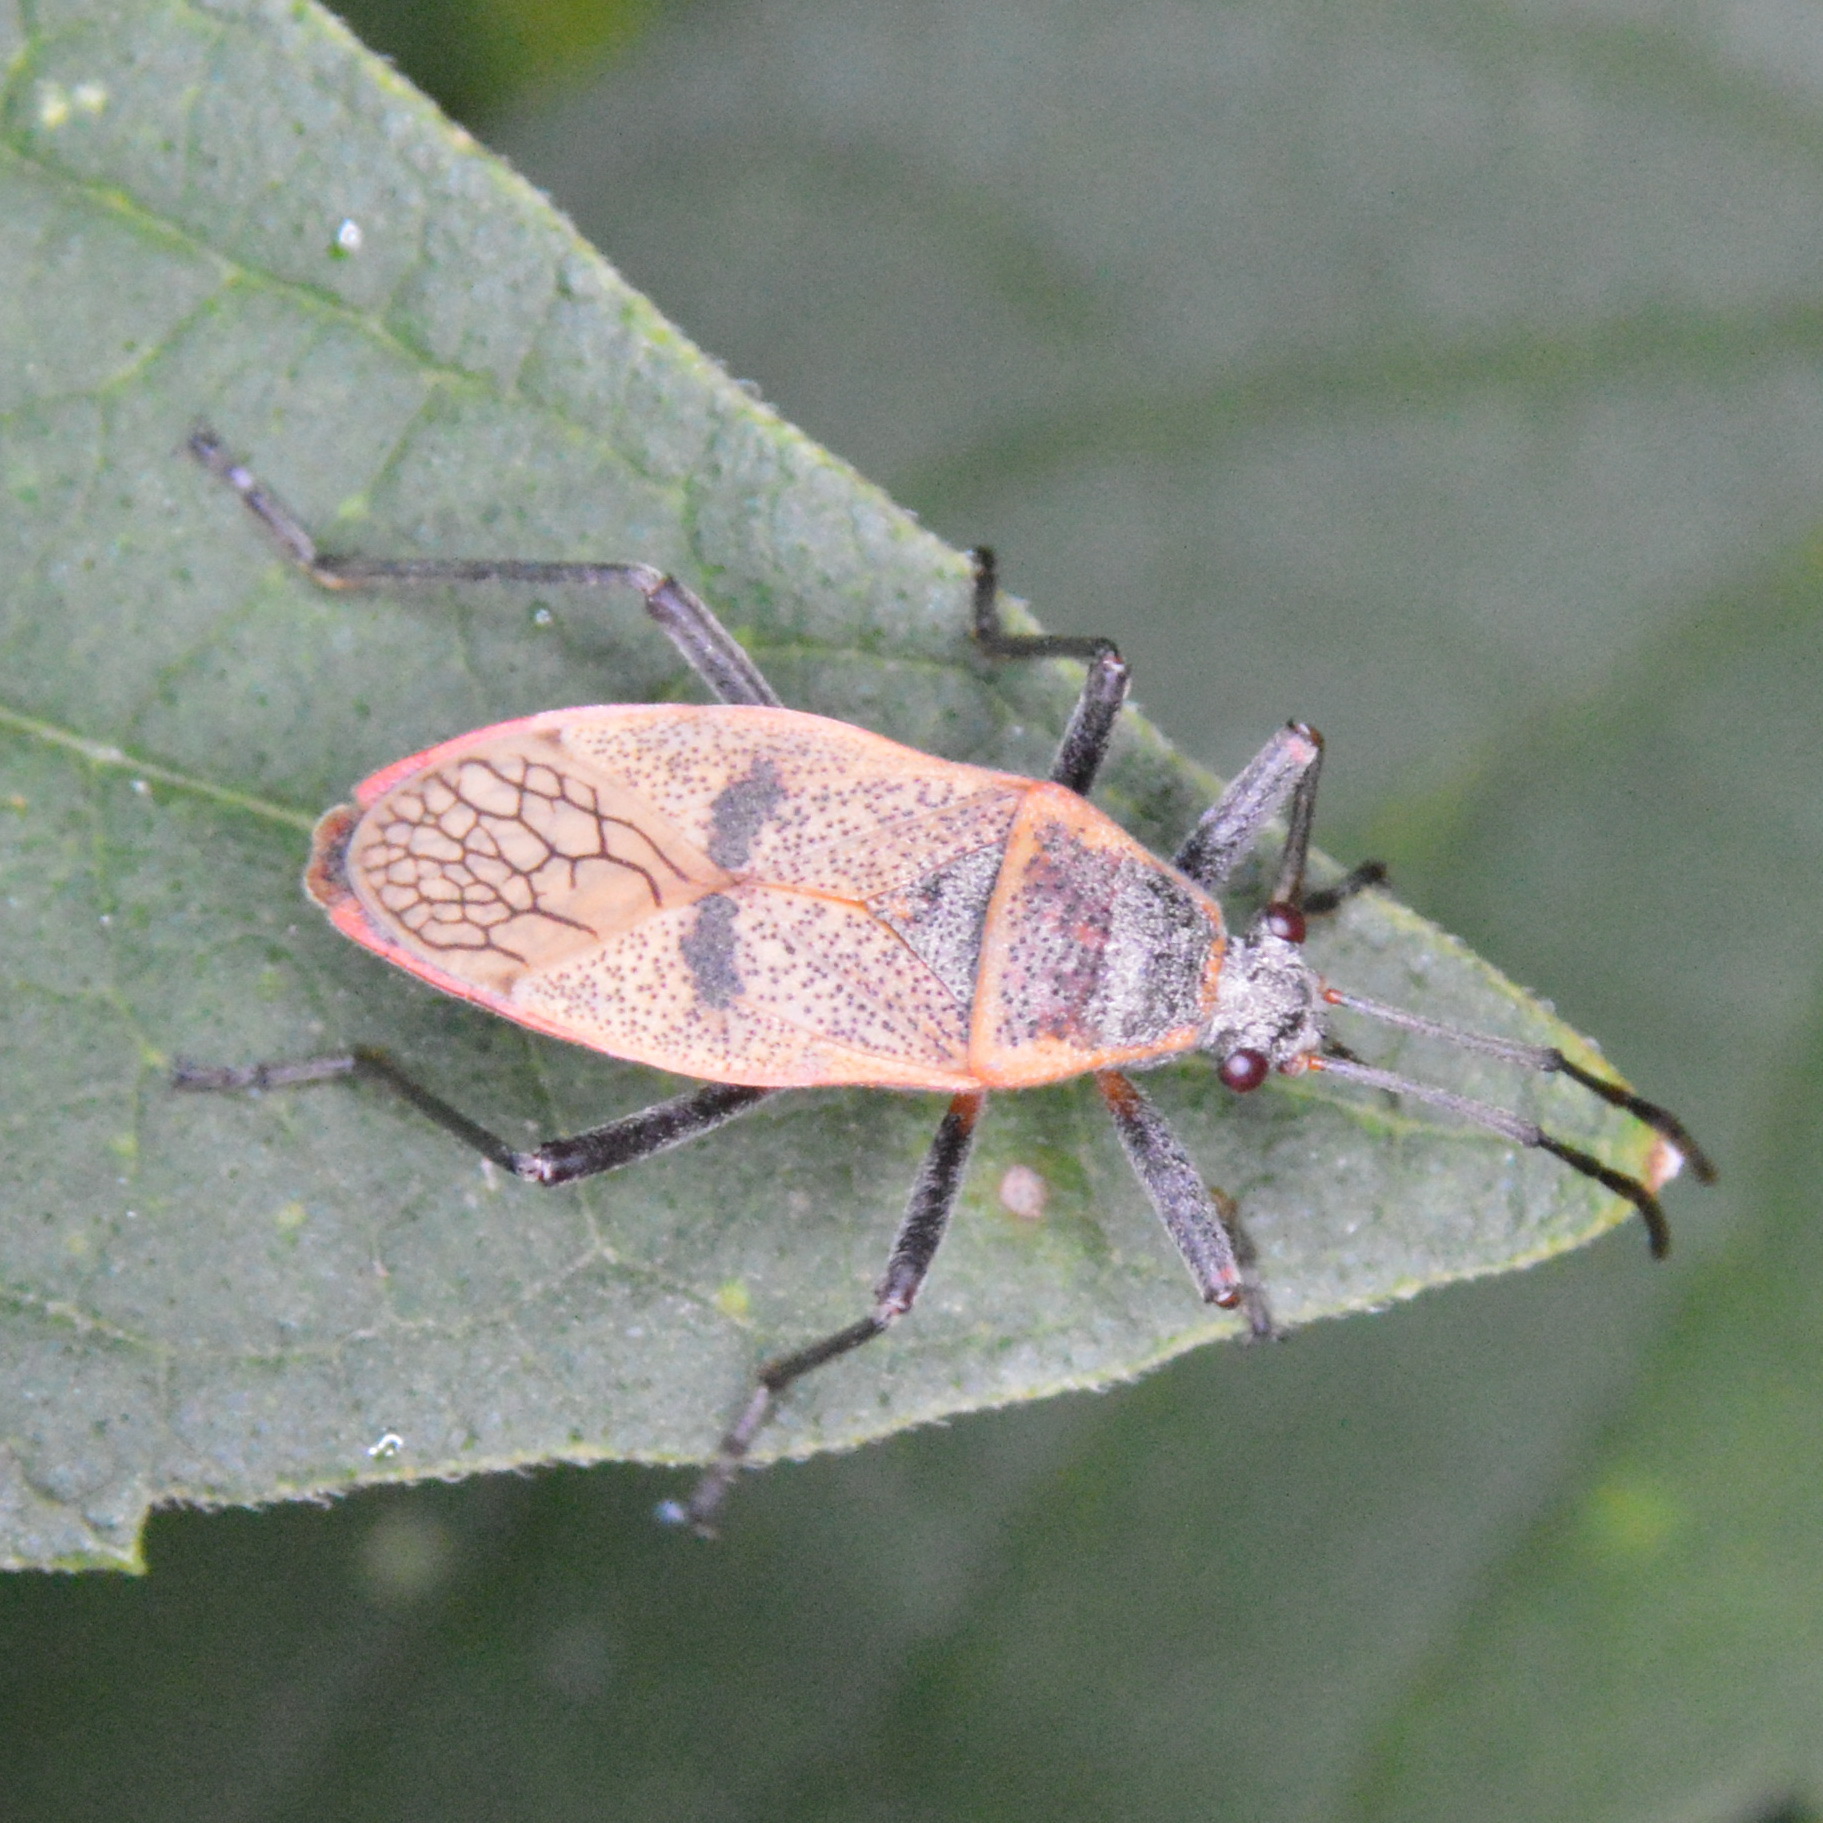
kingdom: Animalia
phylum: Arthropoda
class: Insecta
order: Hemiptera
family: Largidae
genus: Largus
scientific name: Largus maculatus
